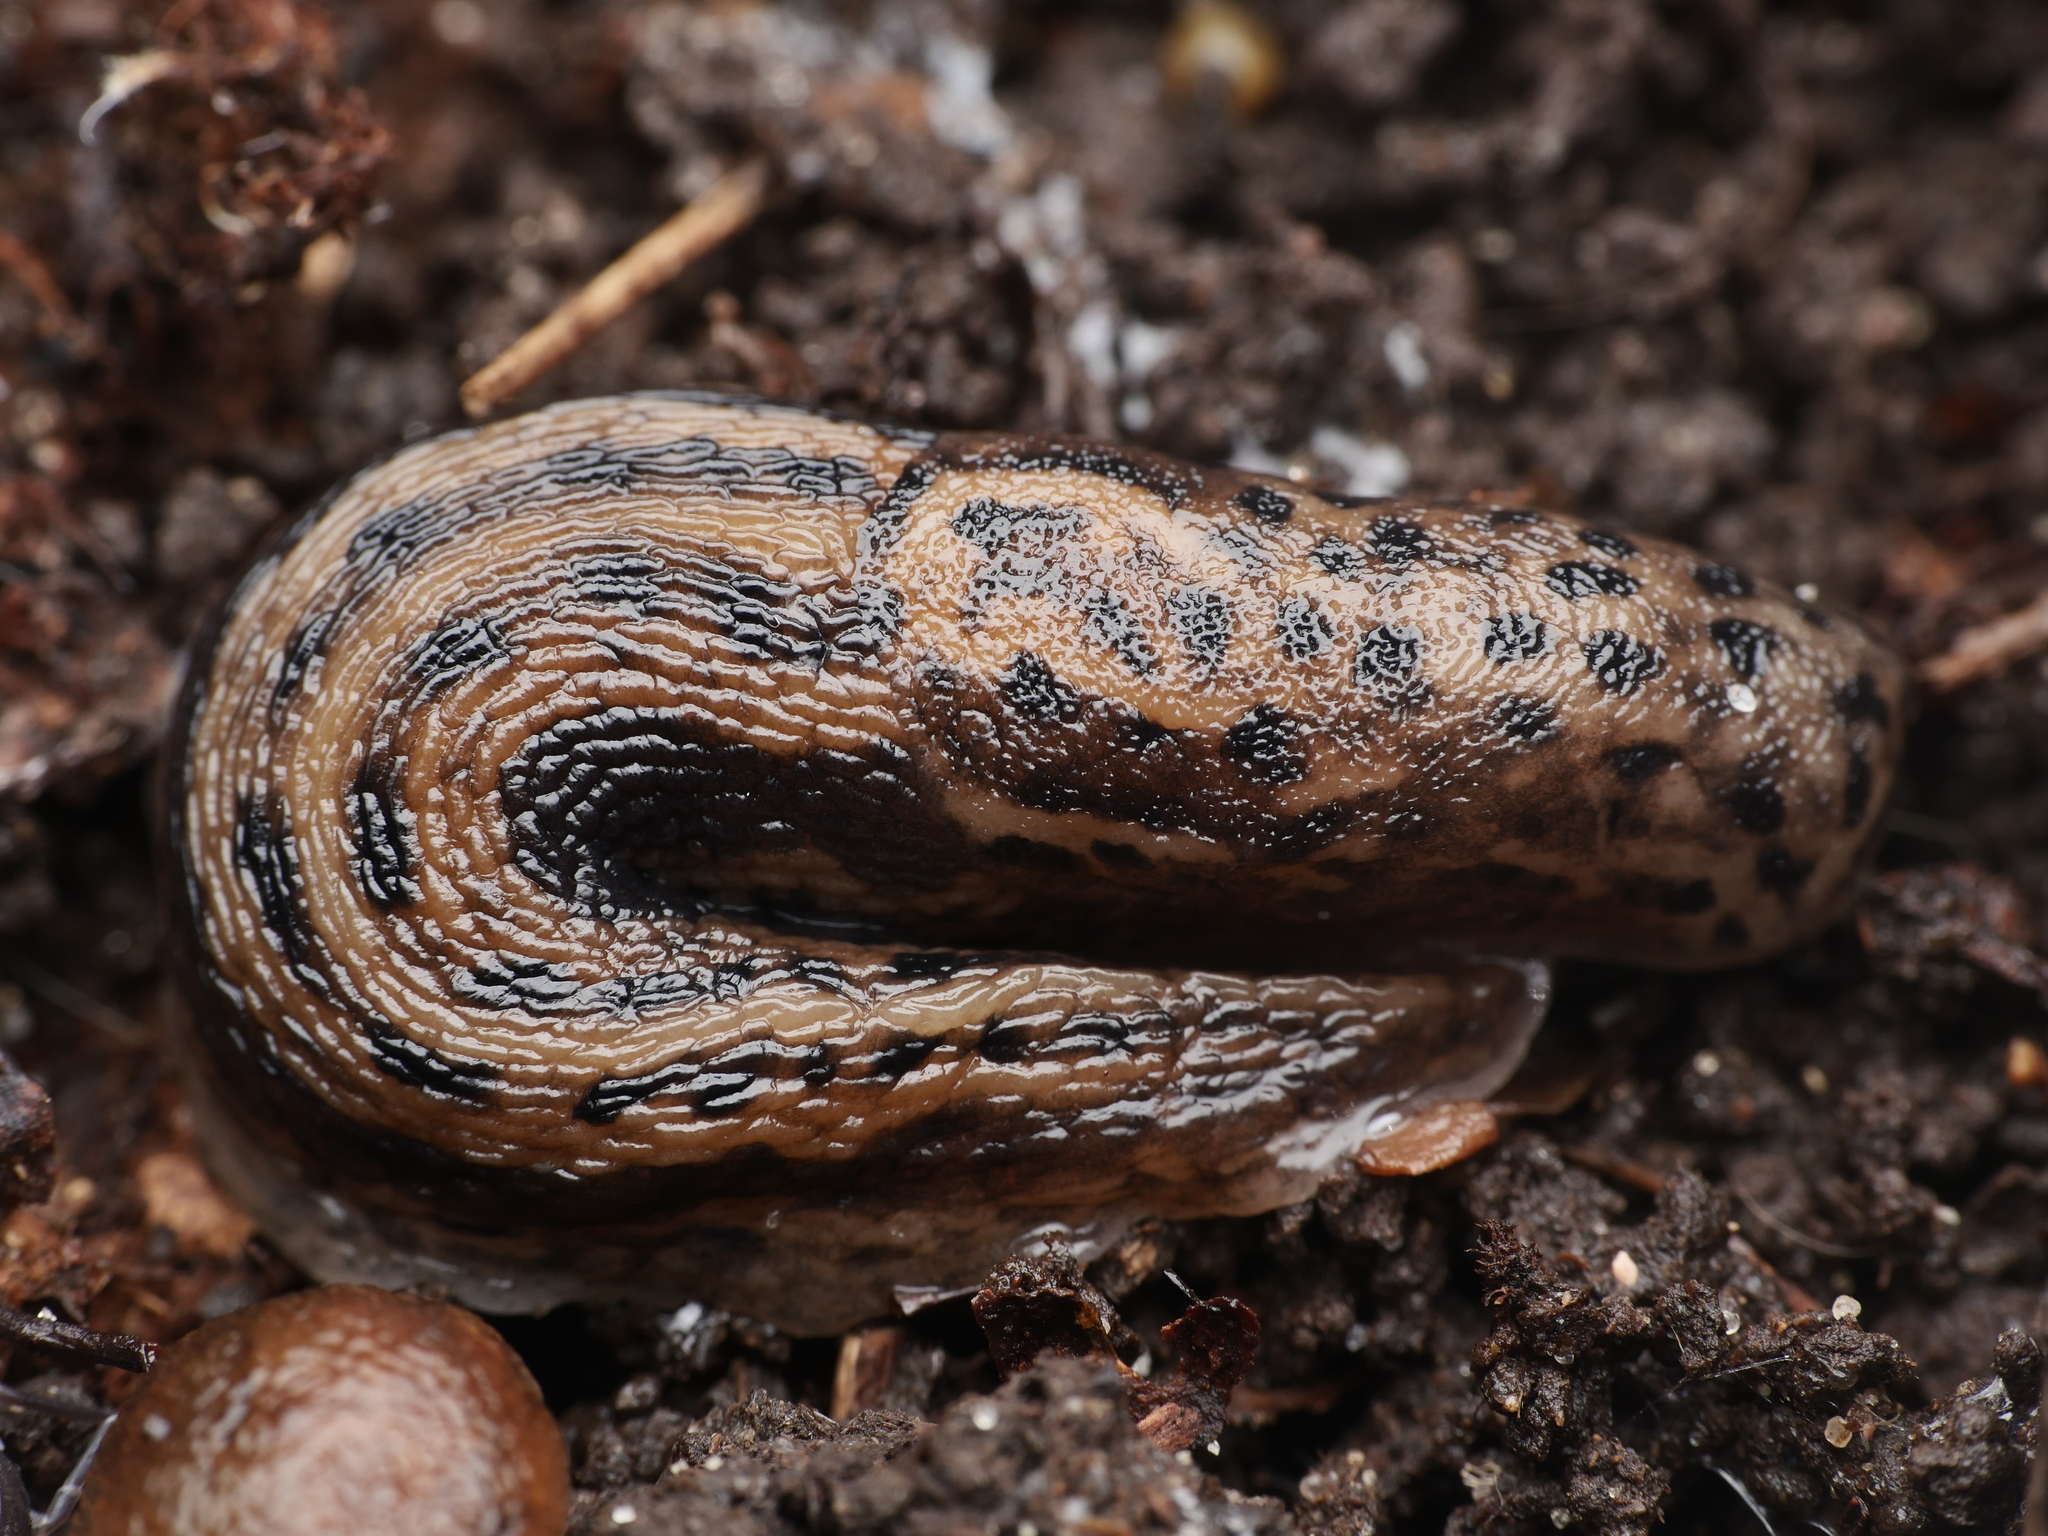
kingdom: Animalia
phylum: Mollusca
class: Gastropoda
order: Stylommatophora
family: Limacidae
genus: Limax
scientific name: Limax maximus
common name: Great grey slug
